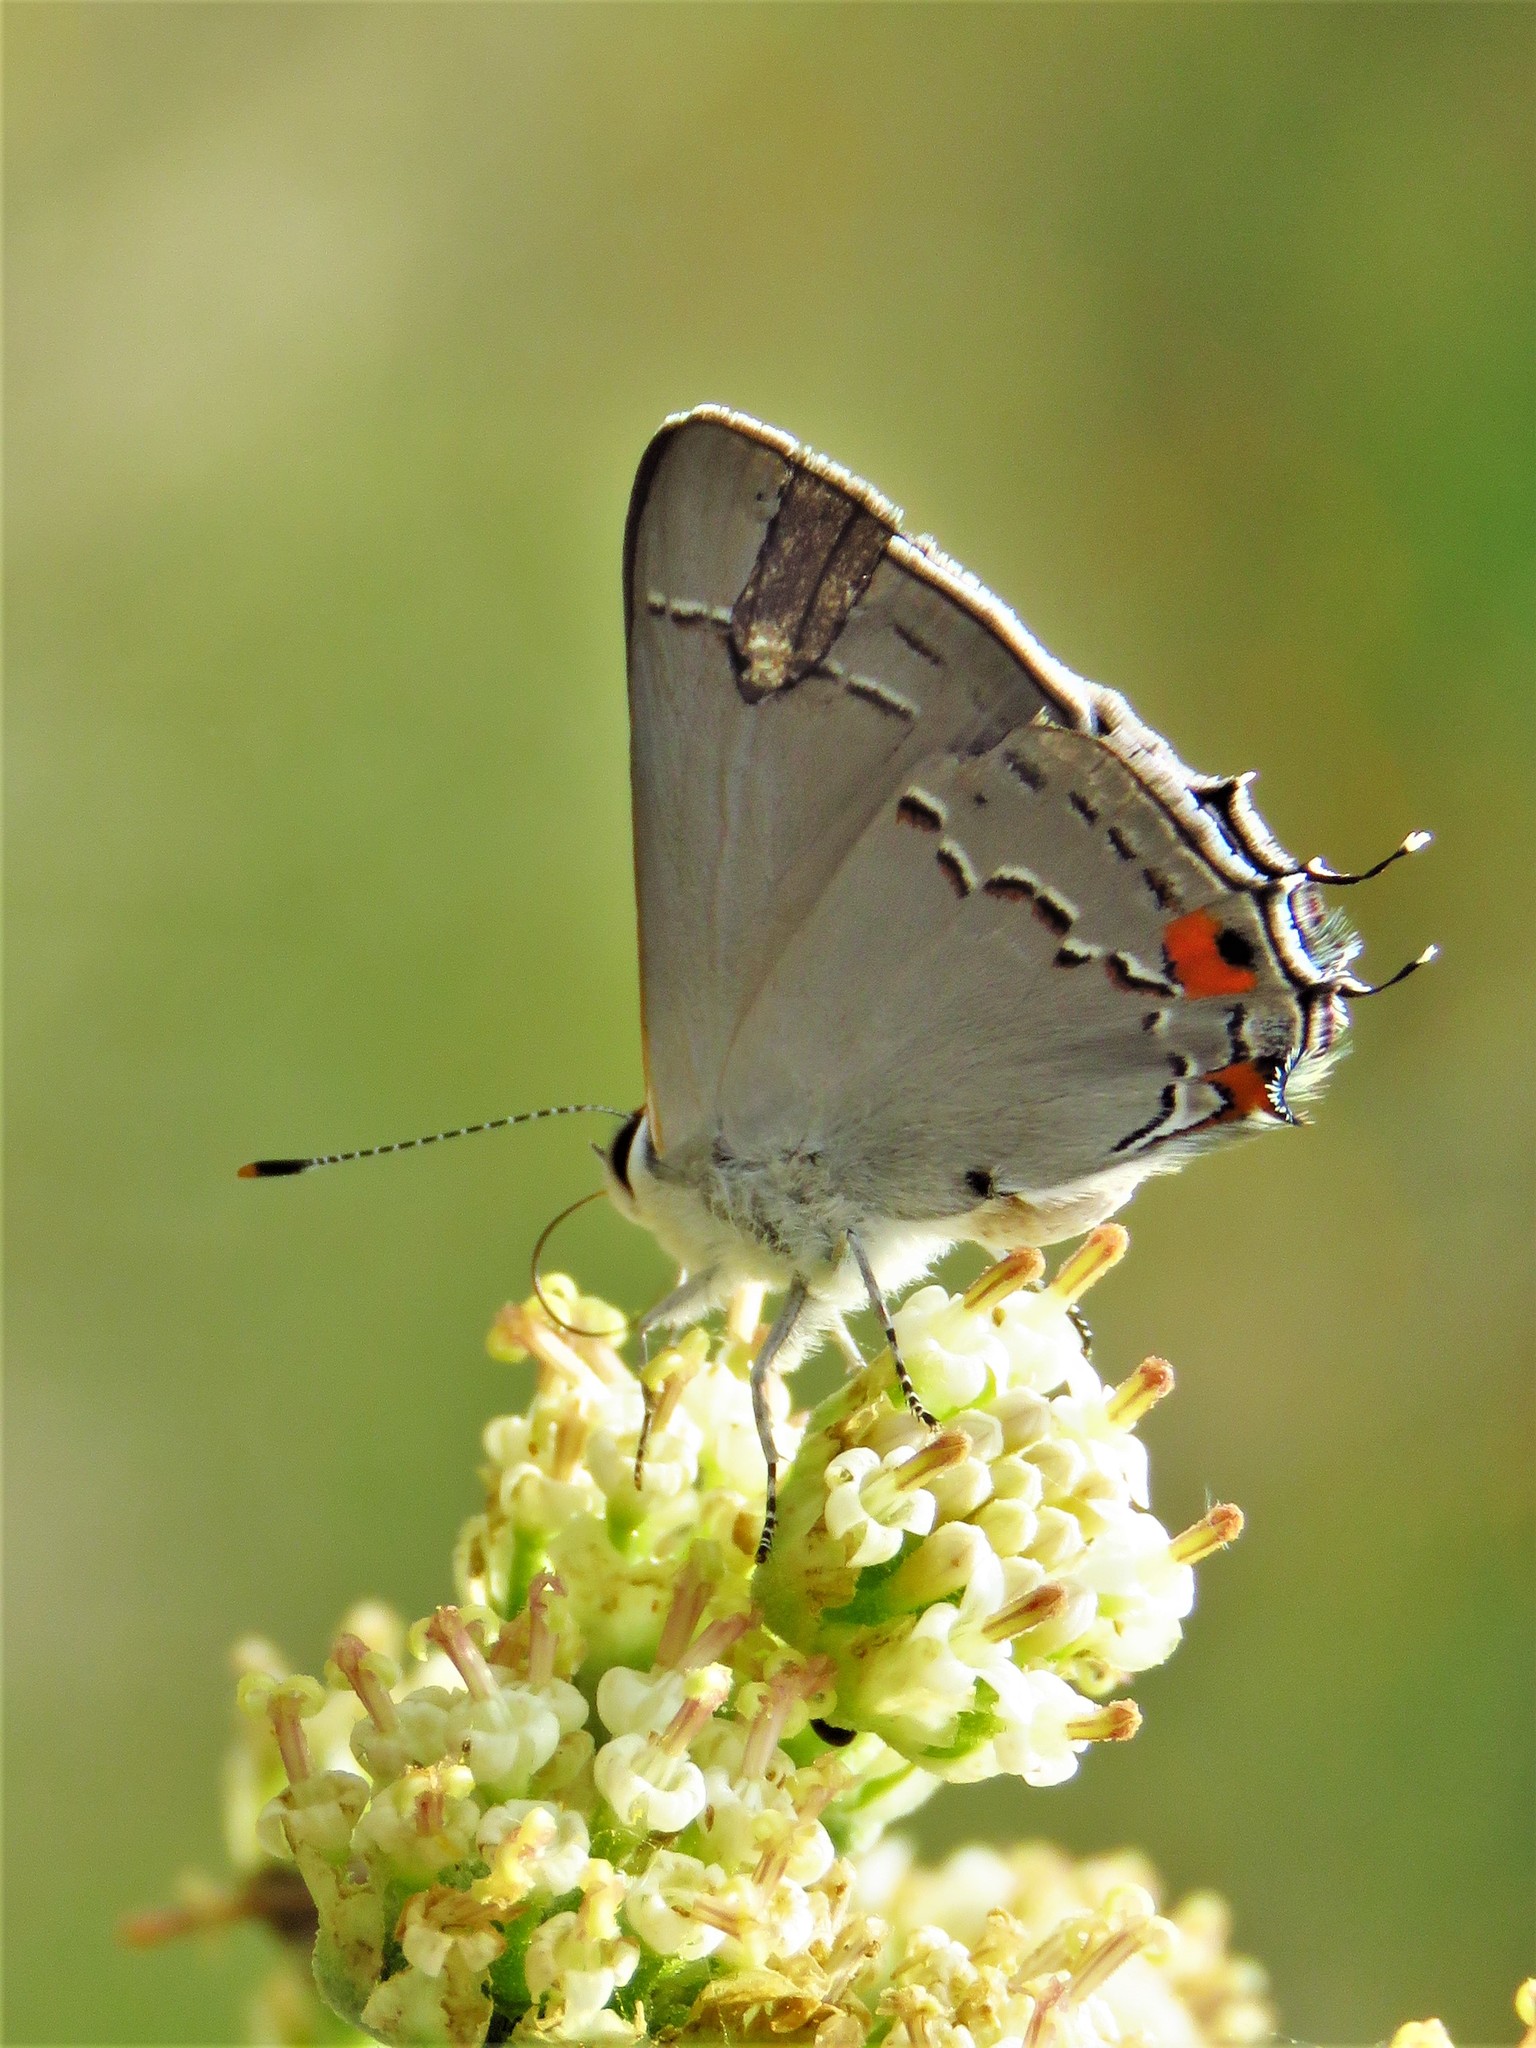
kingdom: Animalia
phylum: Arthropoda
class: Insecta
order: Lepidoptera
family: Lycaenidae
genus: Strymon
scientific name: Strymon melinus
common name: Gray hairstreak
